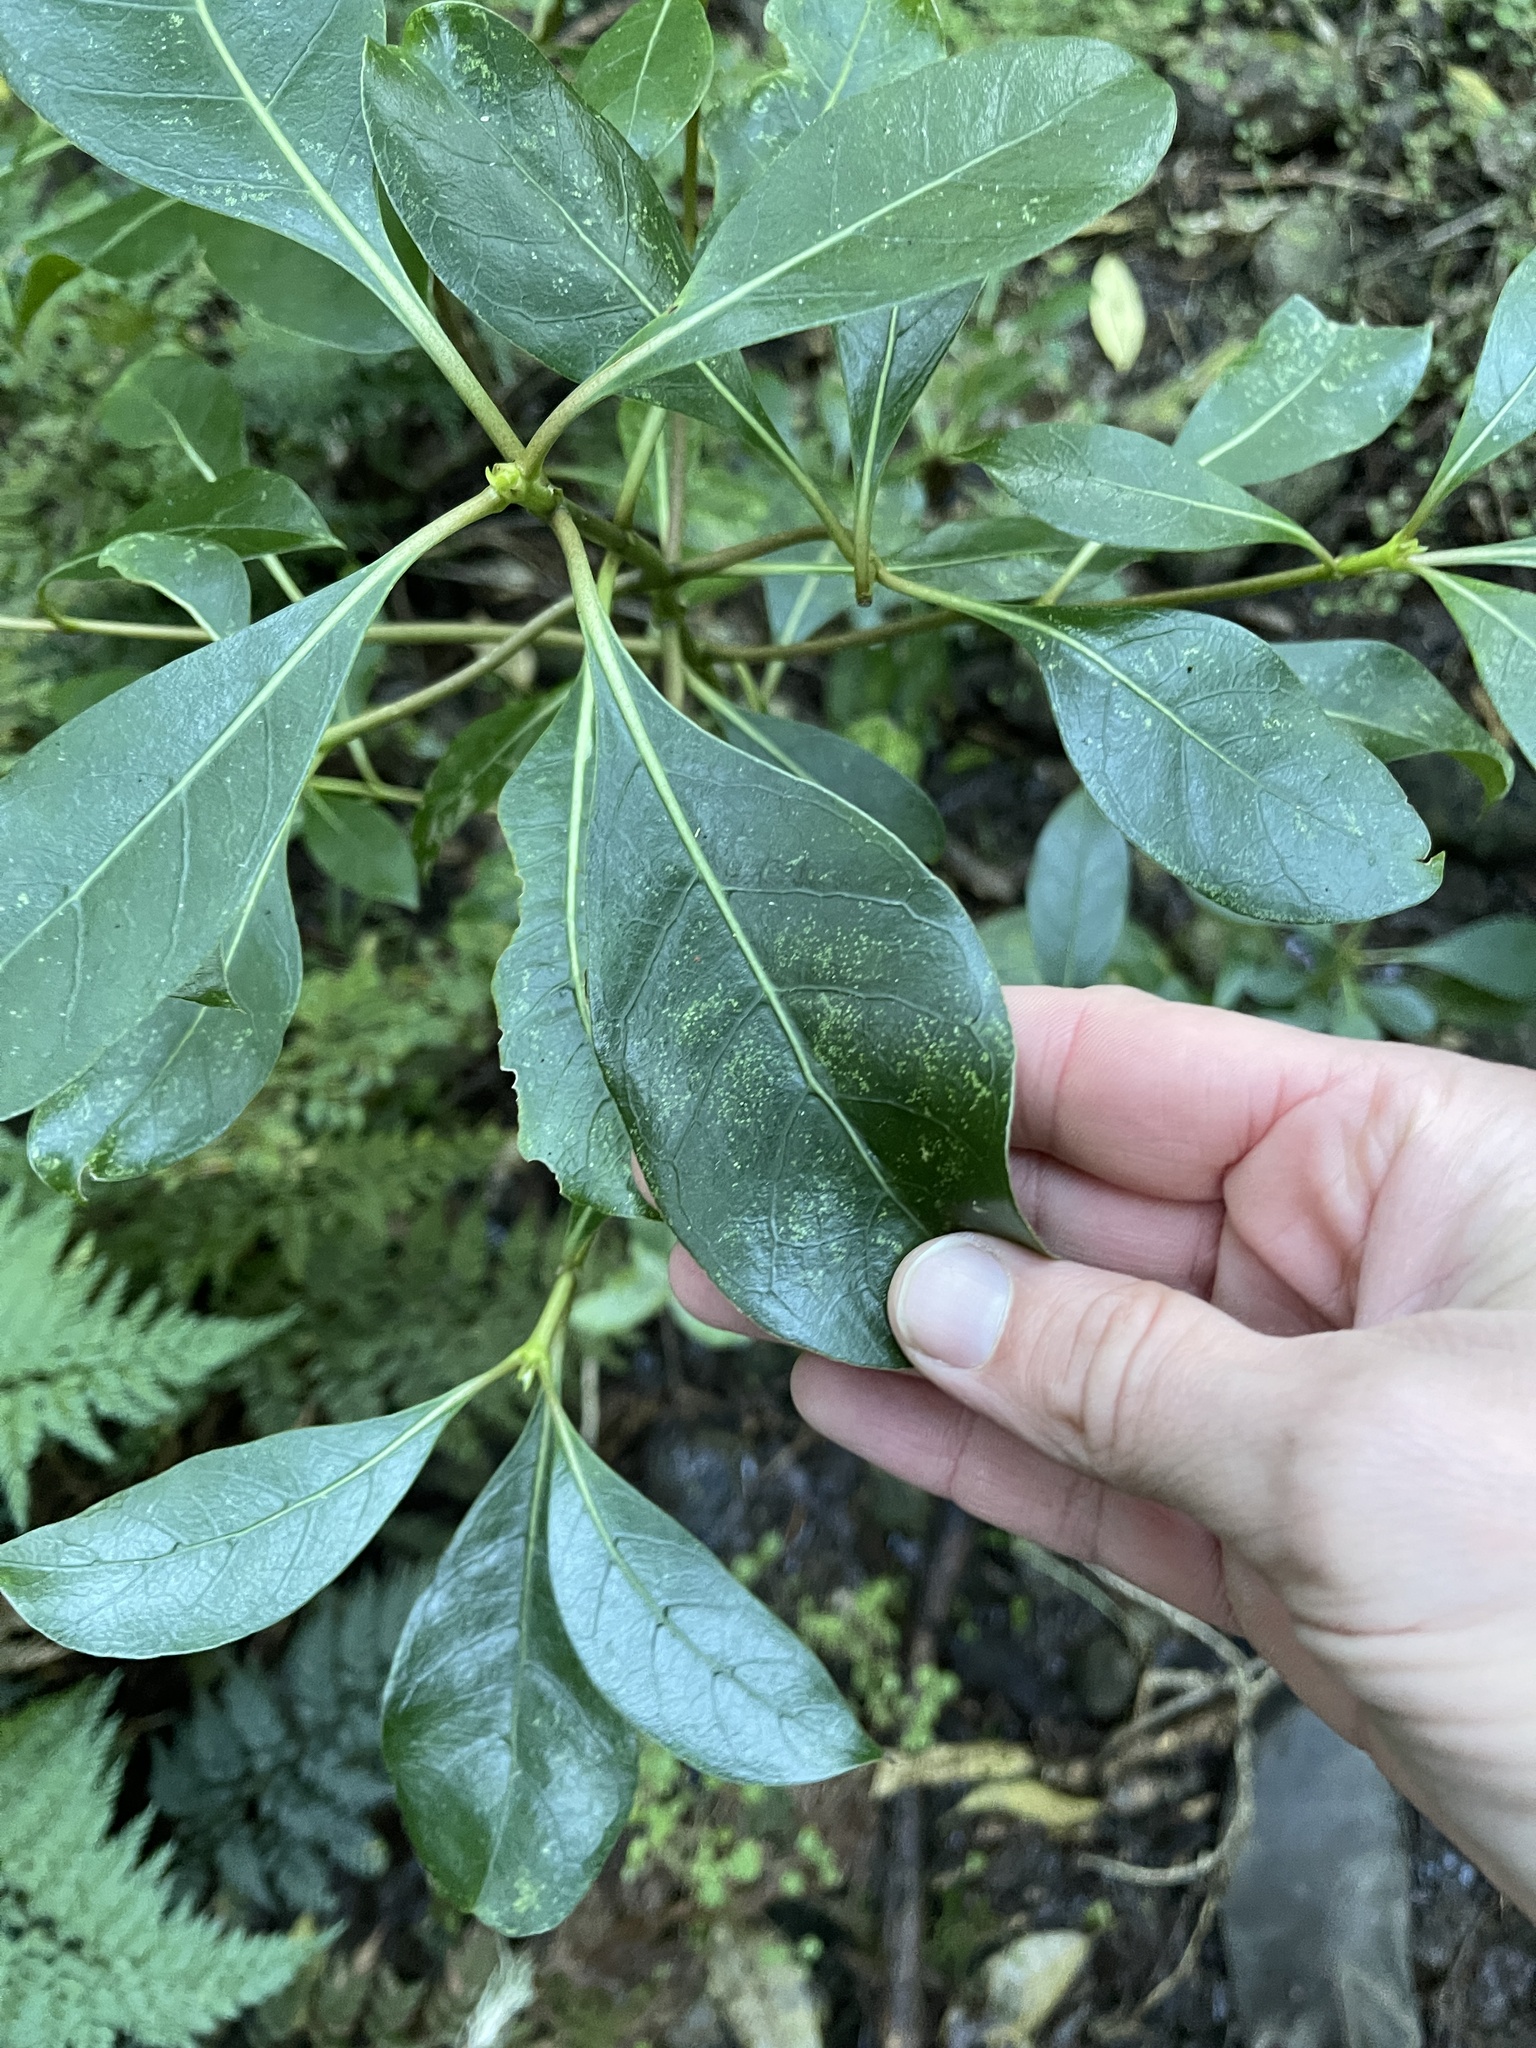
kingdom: Plantae
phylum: Tracheophyta
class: Magnoliopsida
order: Gentianales
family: Rubiaceae
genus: Coprosma
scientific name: Coprosma lucida
